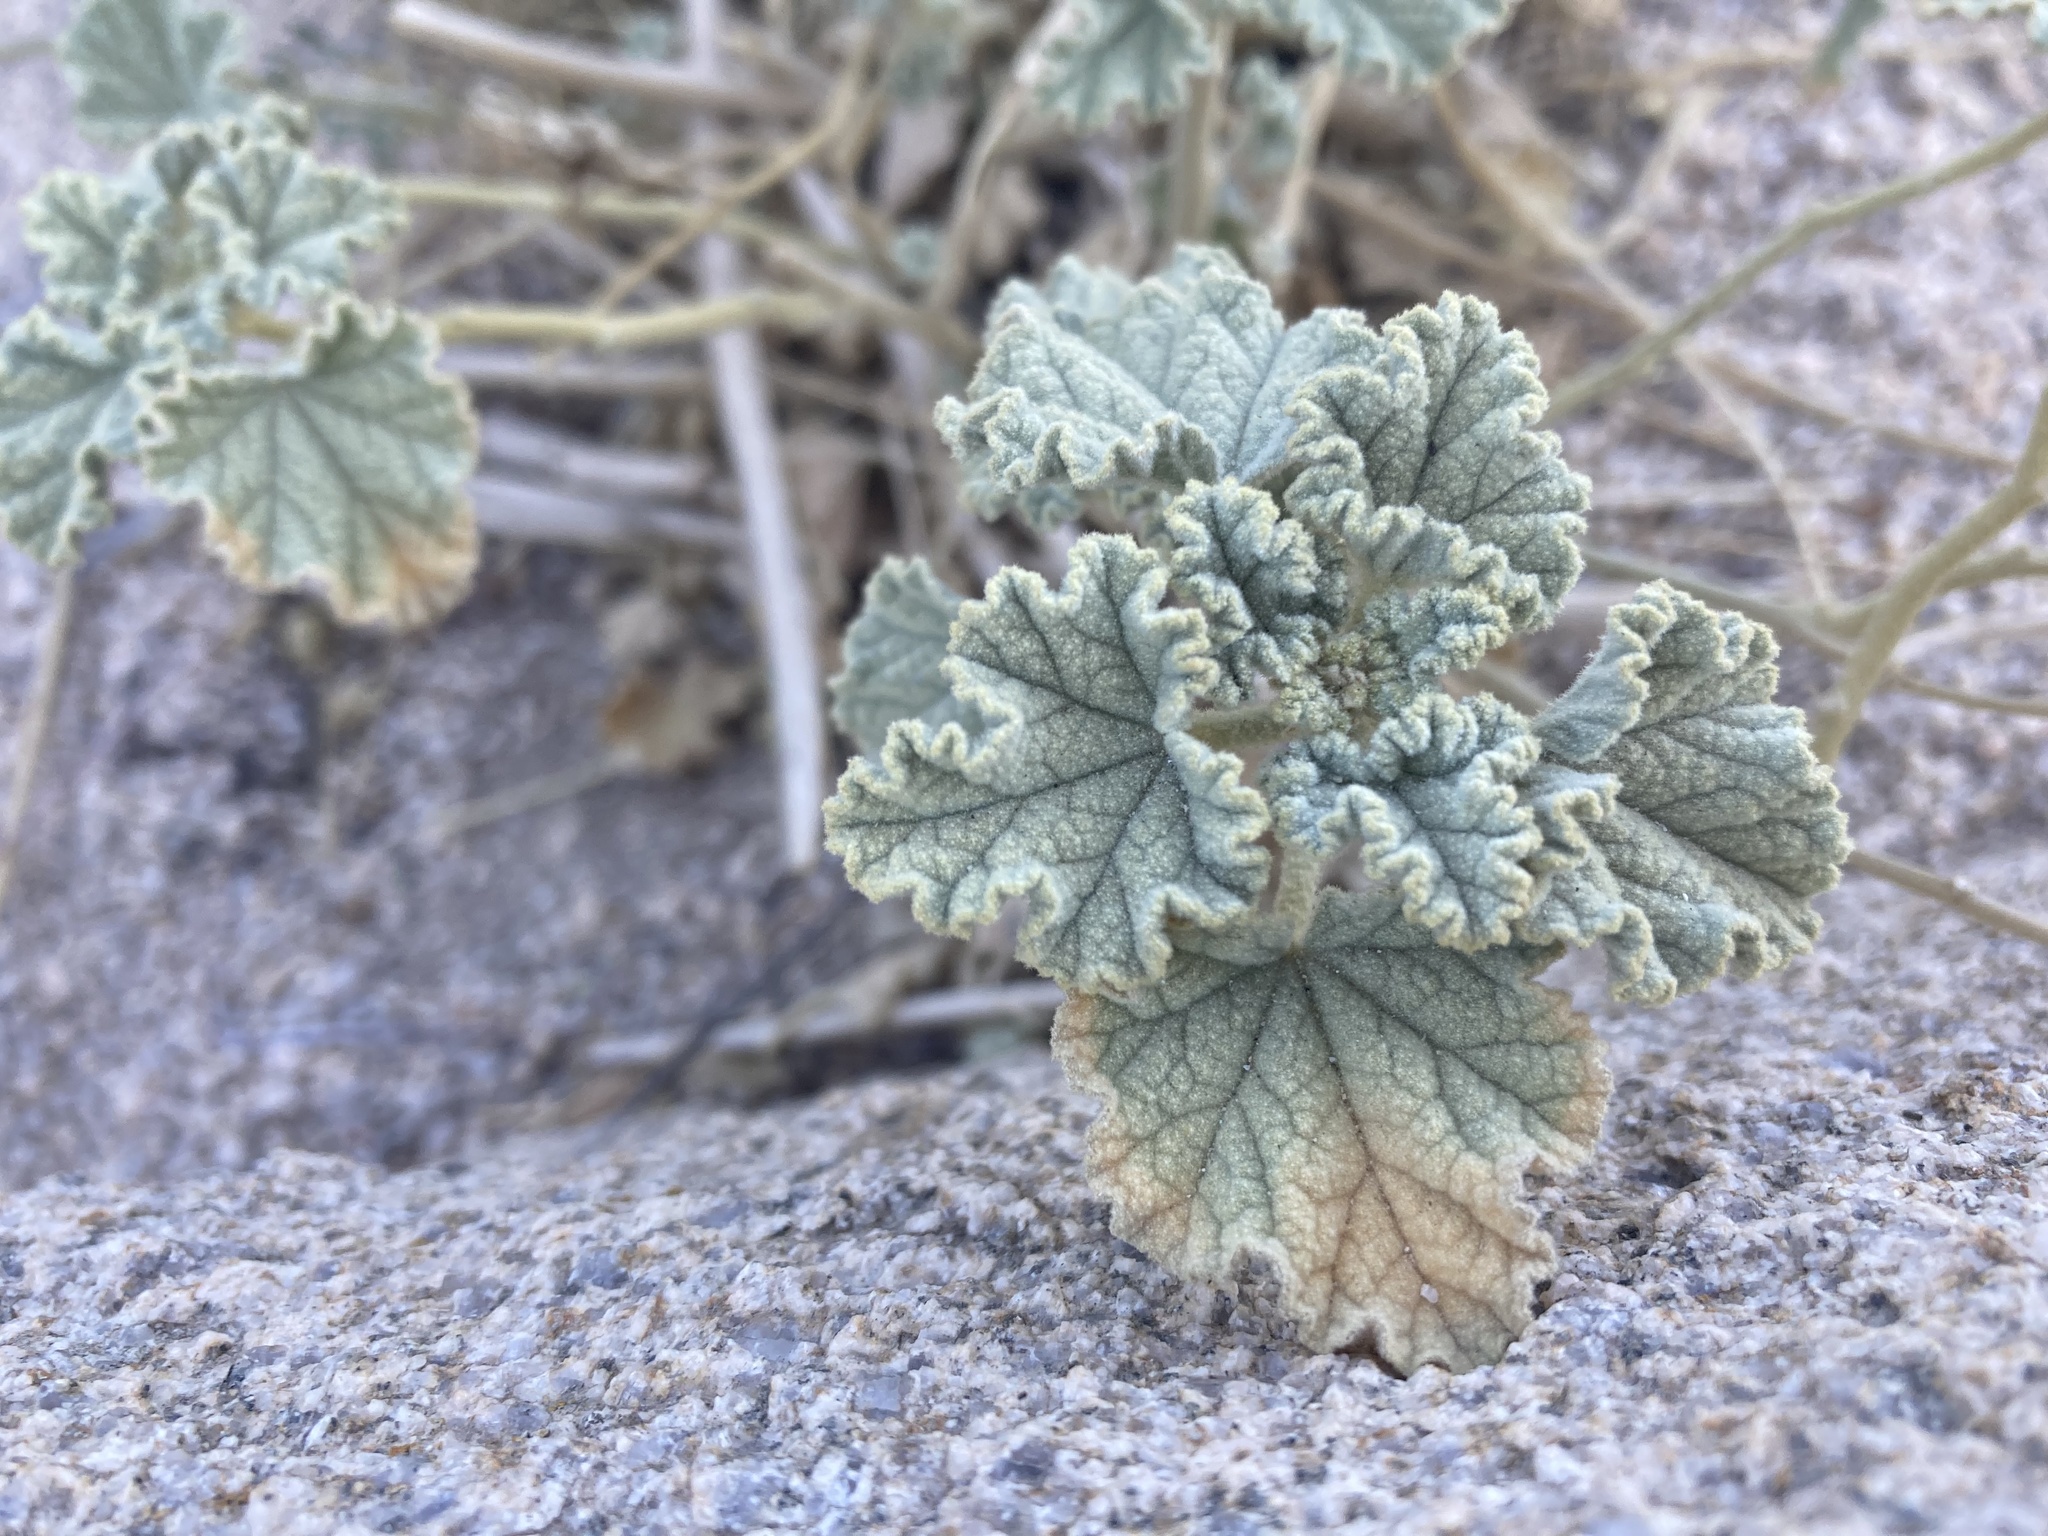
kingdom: Plantae
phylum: Tracheophyta
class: Magnoliopsida
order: Malvales
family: Malvaceae
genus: Sphaeralcea
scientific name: Sphaeralcea ambigua
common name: Apricot globe-mallow
